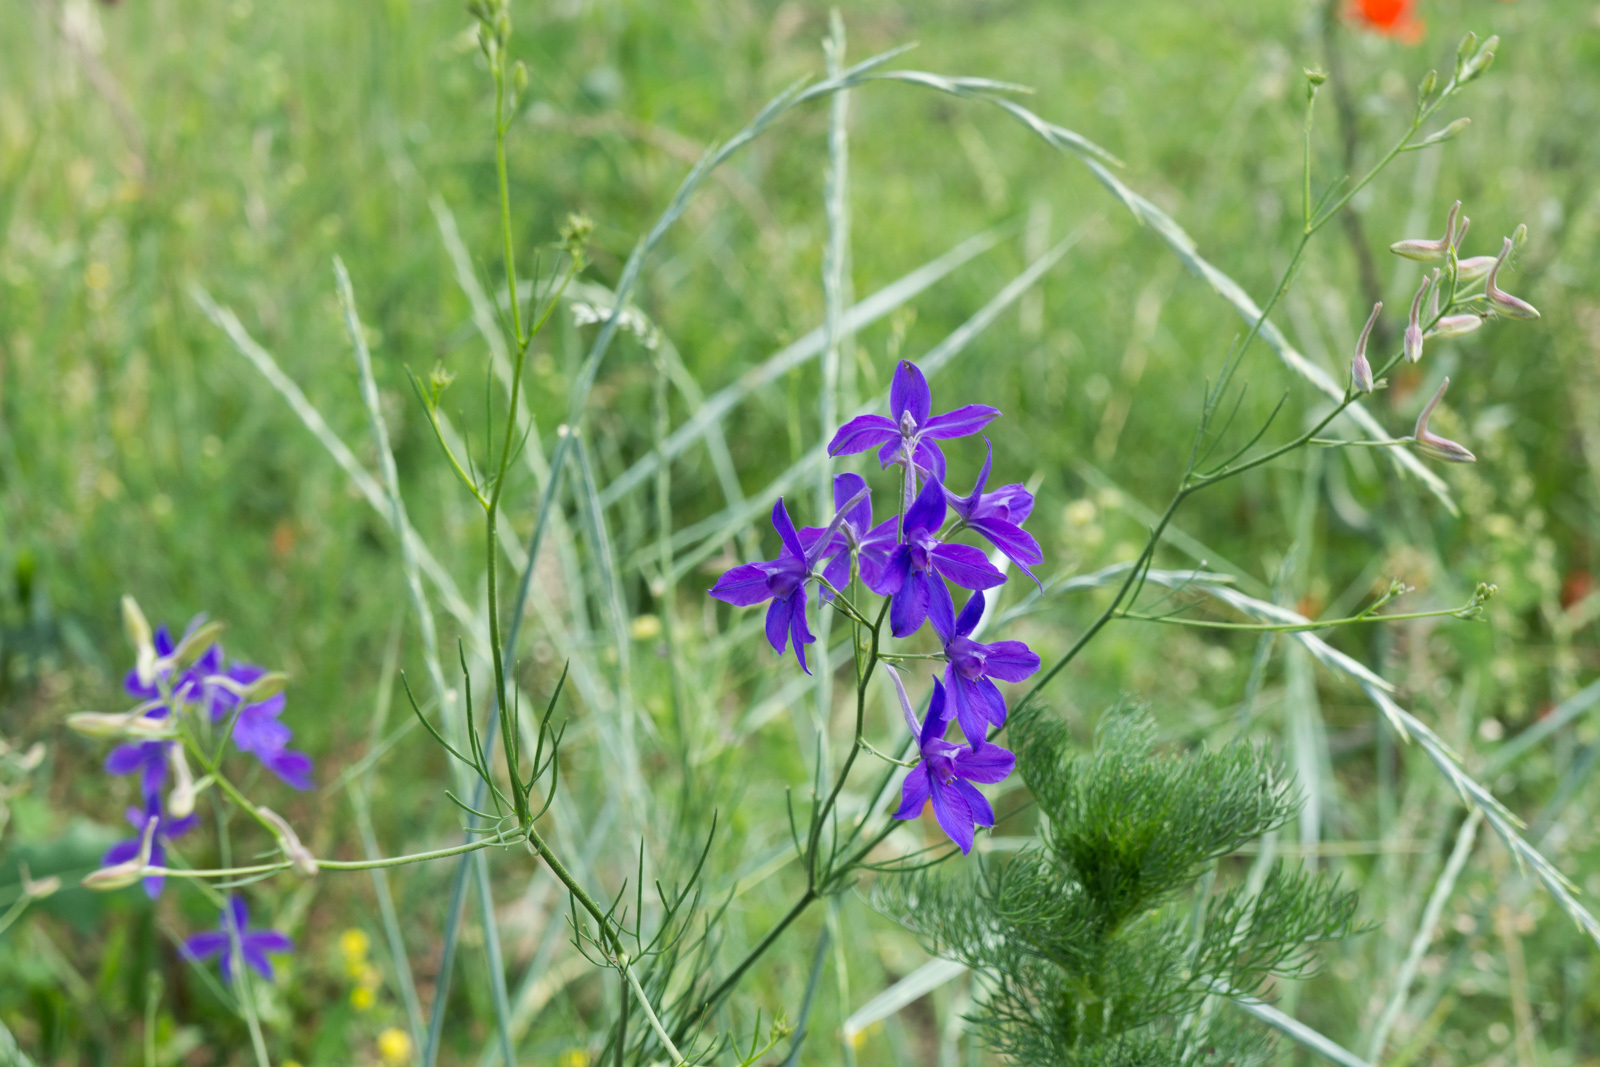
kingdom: Plantae
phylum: Tracheophyta
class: Magnoliopsida
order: Ranunculales
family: Ranunculaceae
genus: Delphinium
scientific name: Delphinium consolida
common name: Branching larkspur
